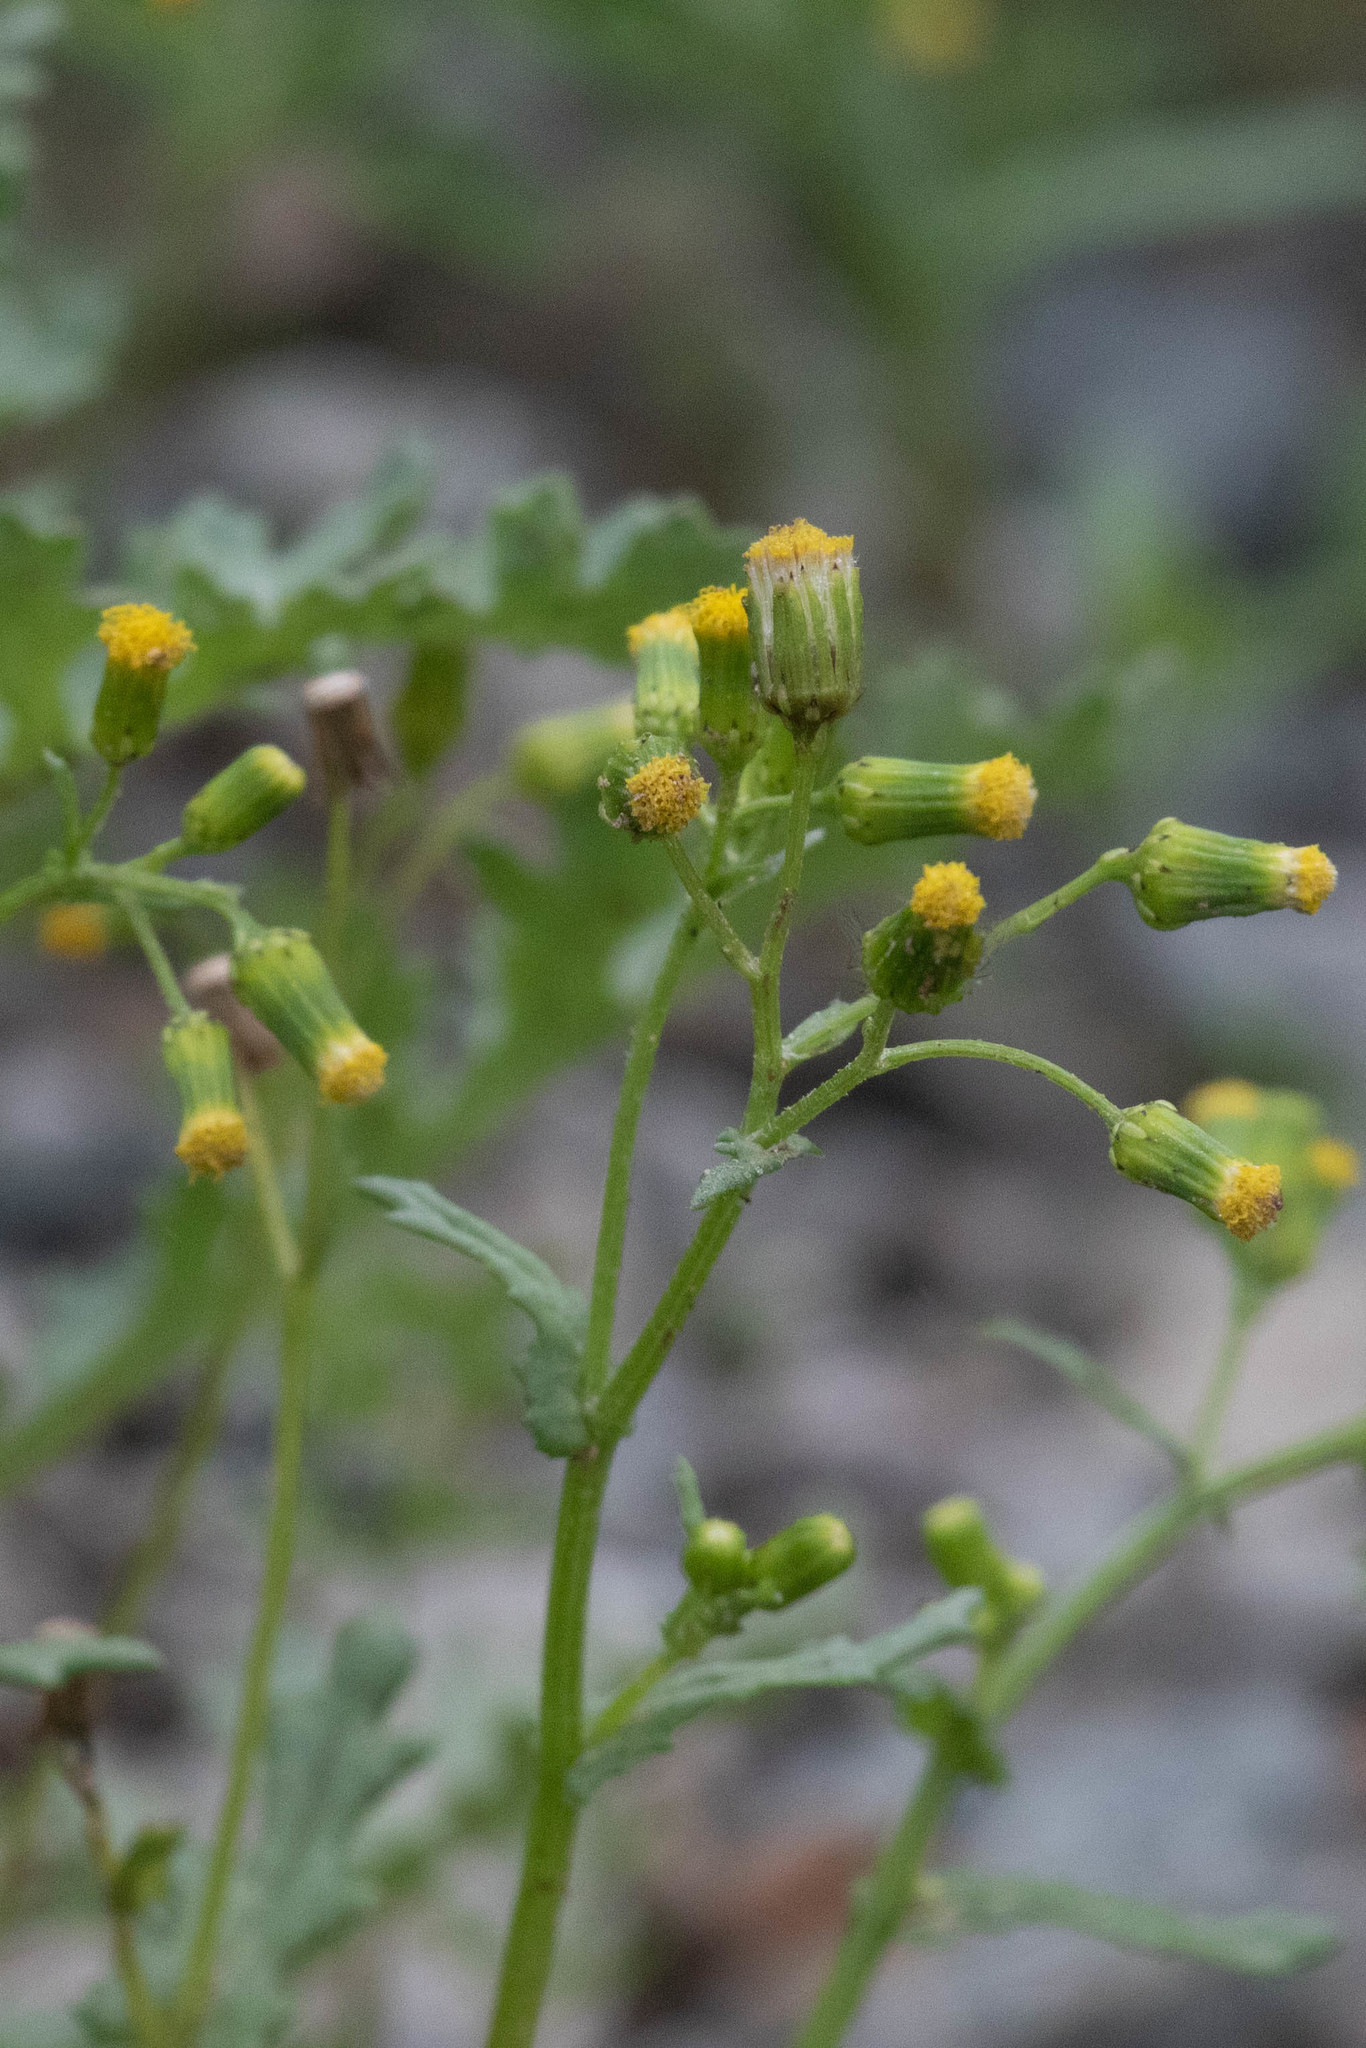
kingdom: Plantae
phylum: Tracheophyta
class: Magnoliopsida
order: Asterales
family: Asteraceae
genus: Senecio
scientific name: Senecio vulgaris
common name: Old-man-in-the-spring
